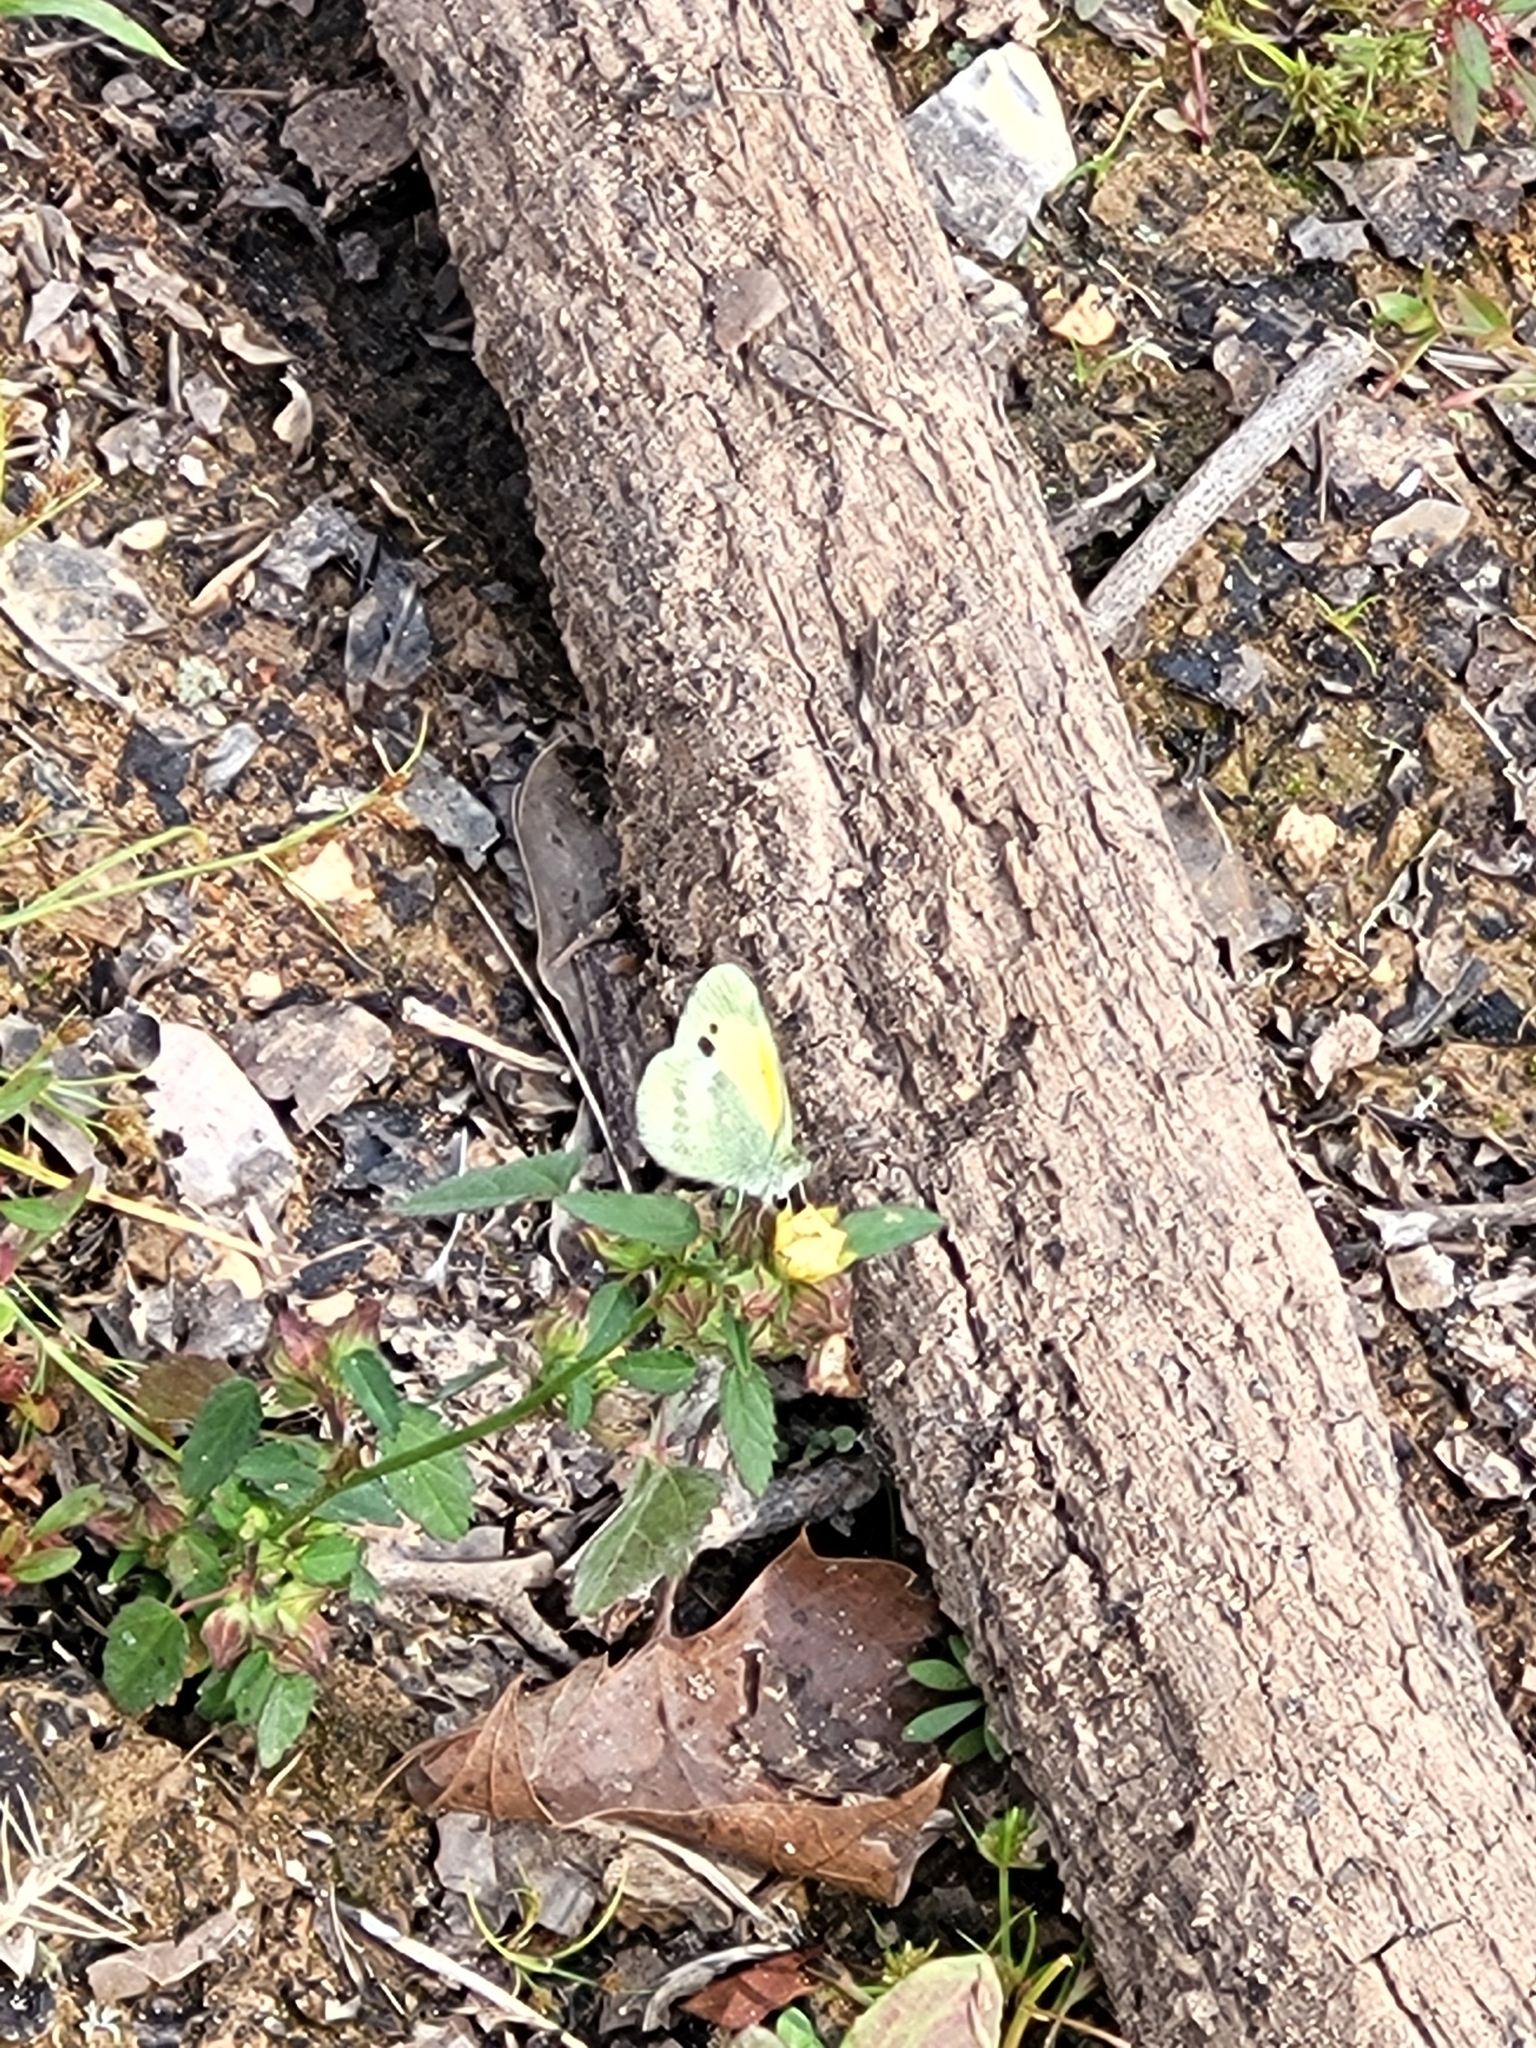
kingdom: Animalia
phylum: Arthropoda
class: Insecta
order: Lepidoptera
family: Pieridae
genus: Nathalis
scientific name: Nathalis iole
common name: Dainty sulphur
